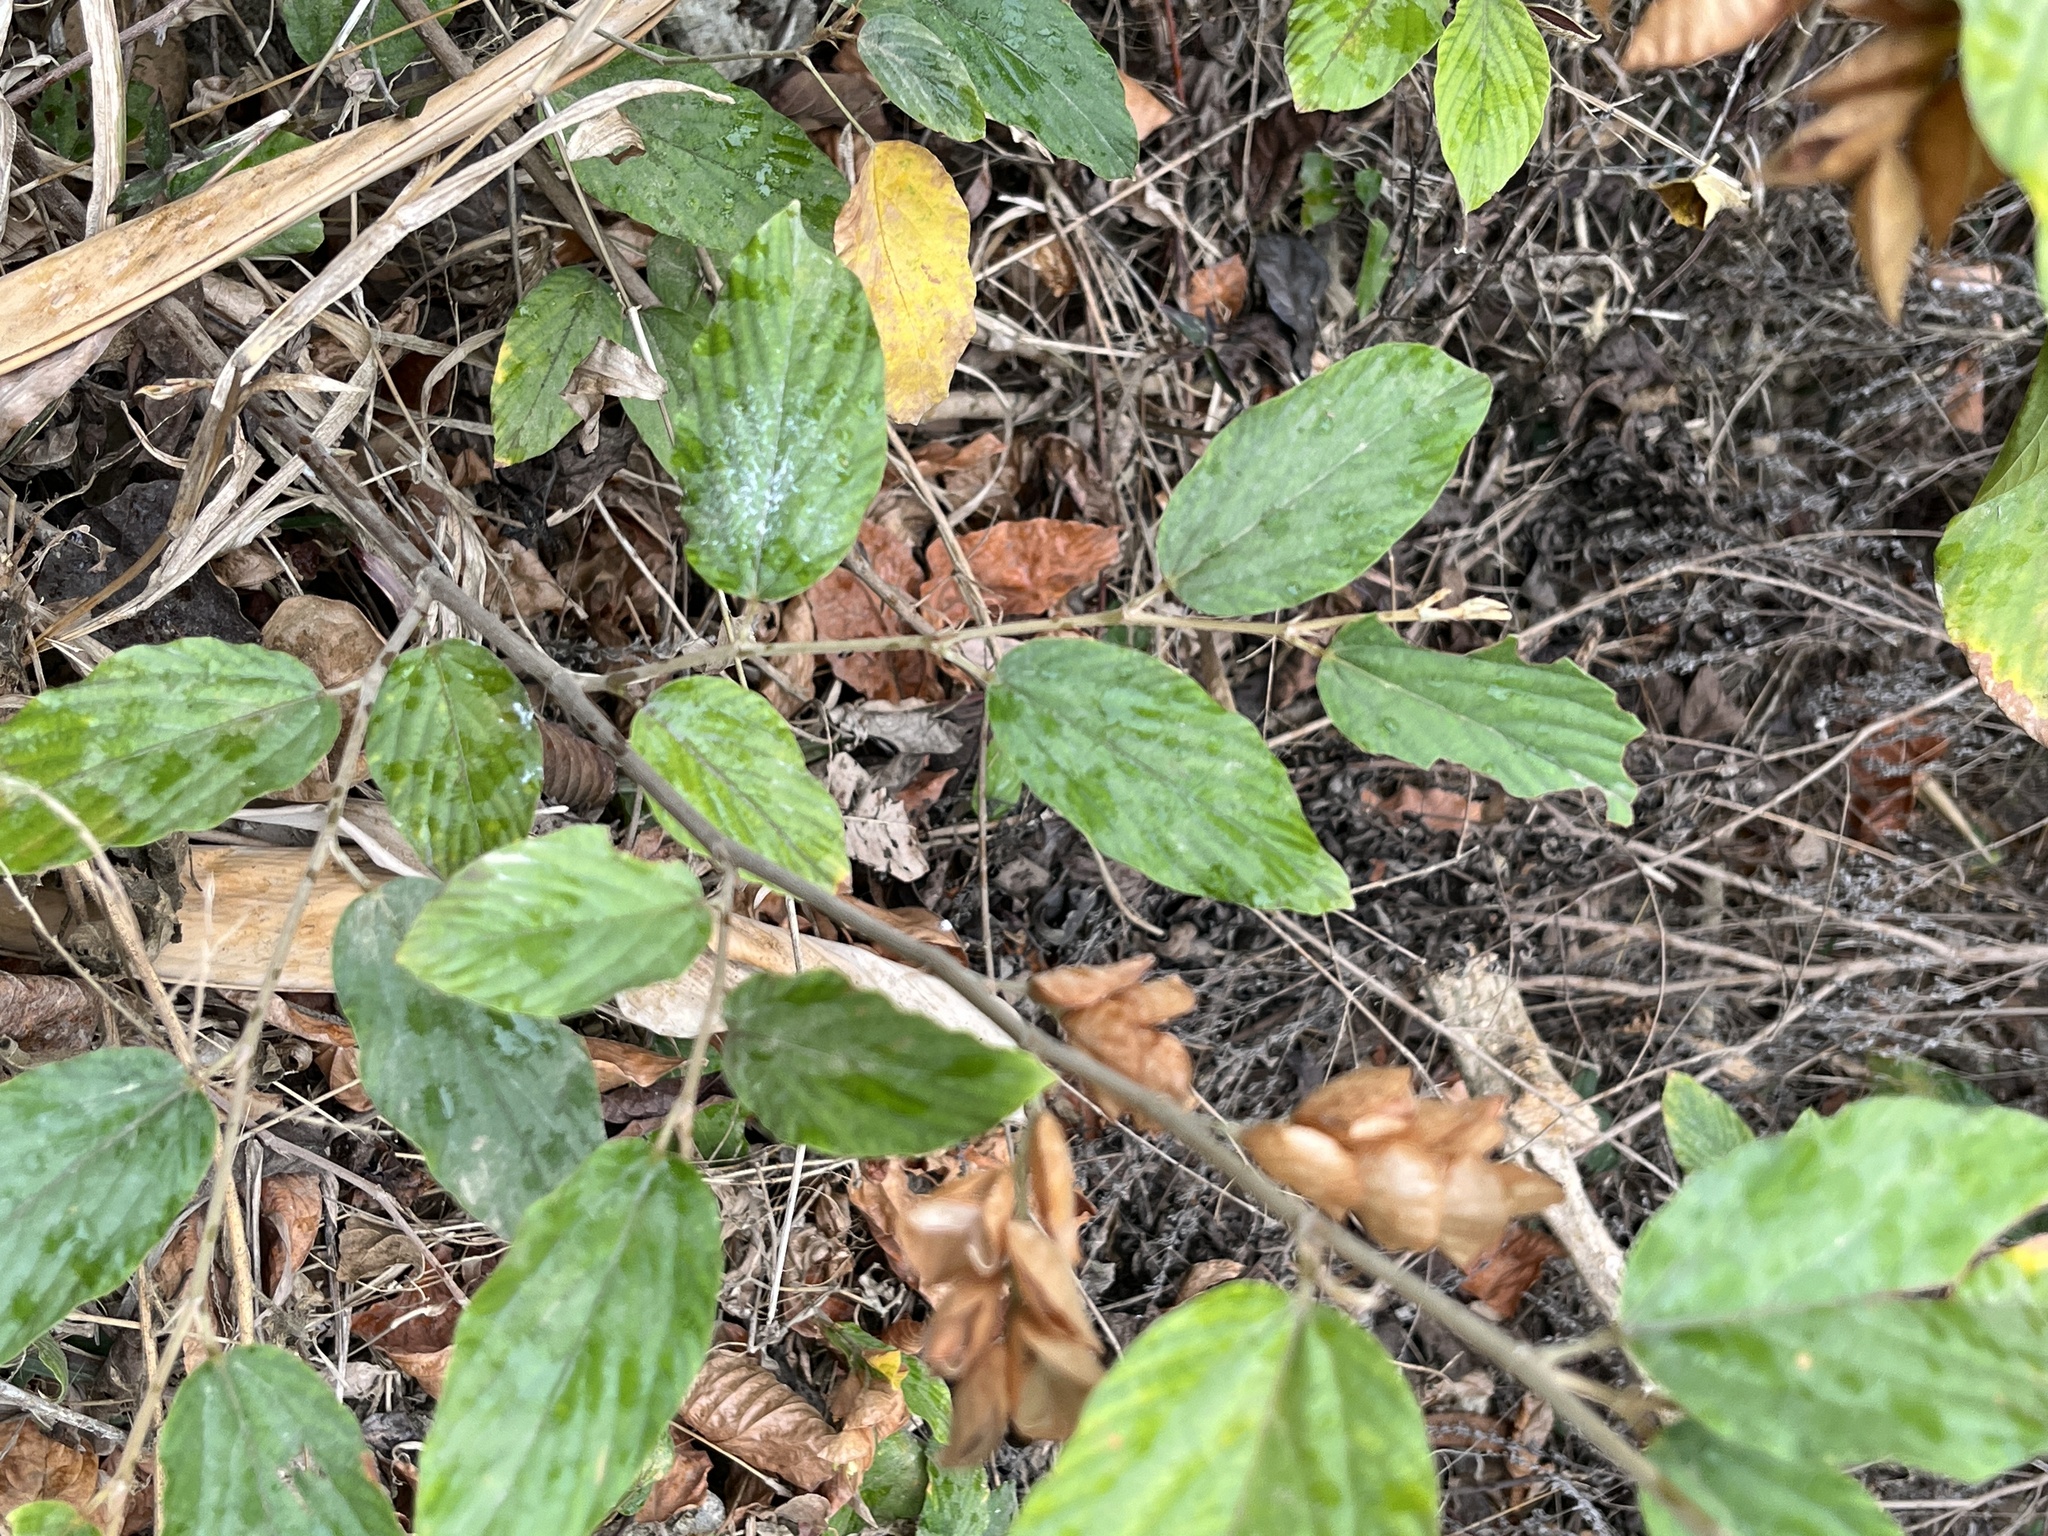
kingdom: Plantae
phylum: Tracheophyta
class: Magnoliopsida
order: Fabales
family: Fabaceae
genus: Flemingia
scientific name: Flemingia strobilifera
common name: Wild hops
